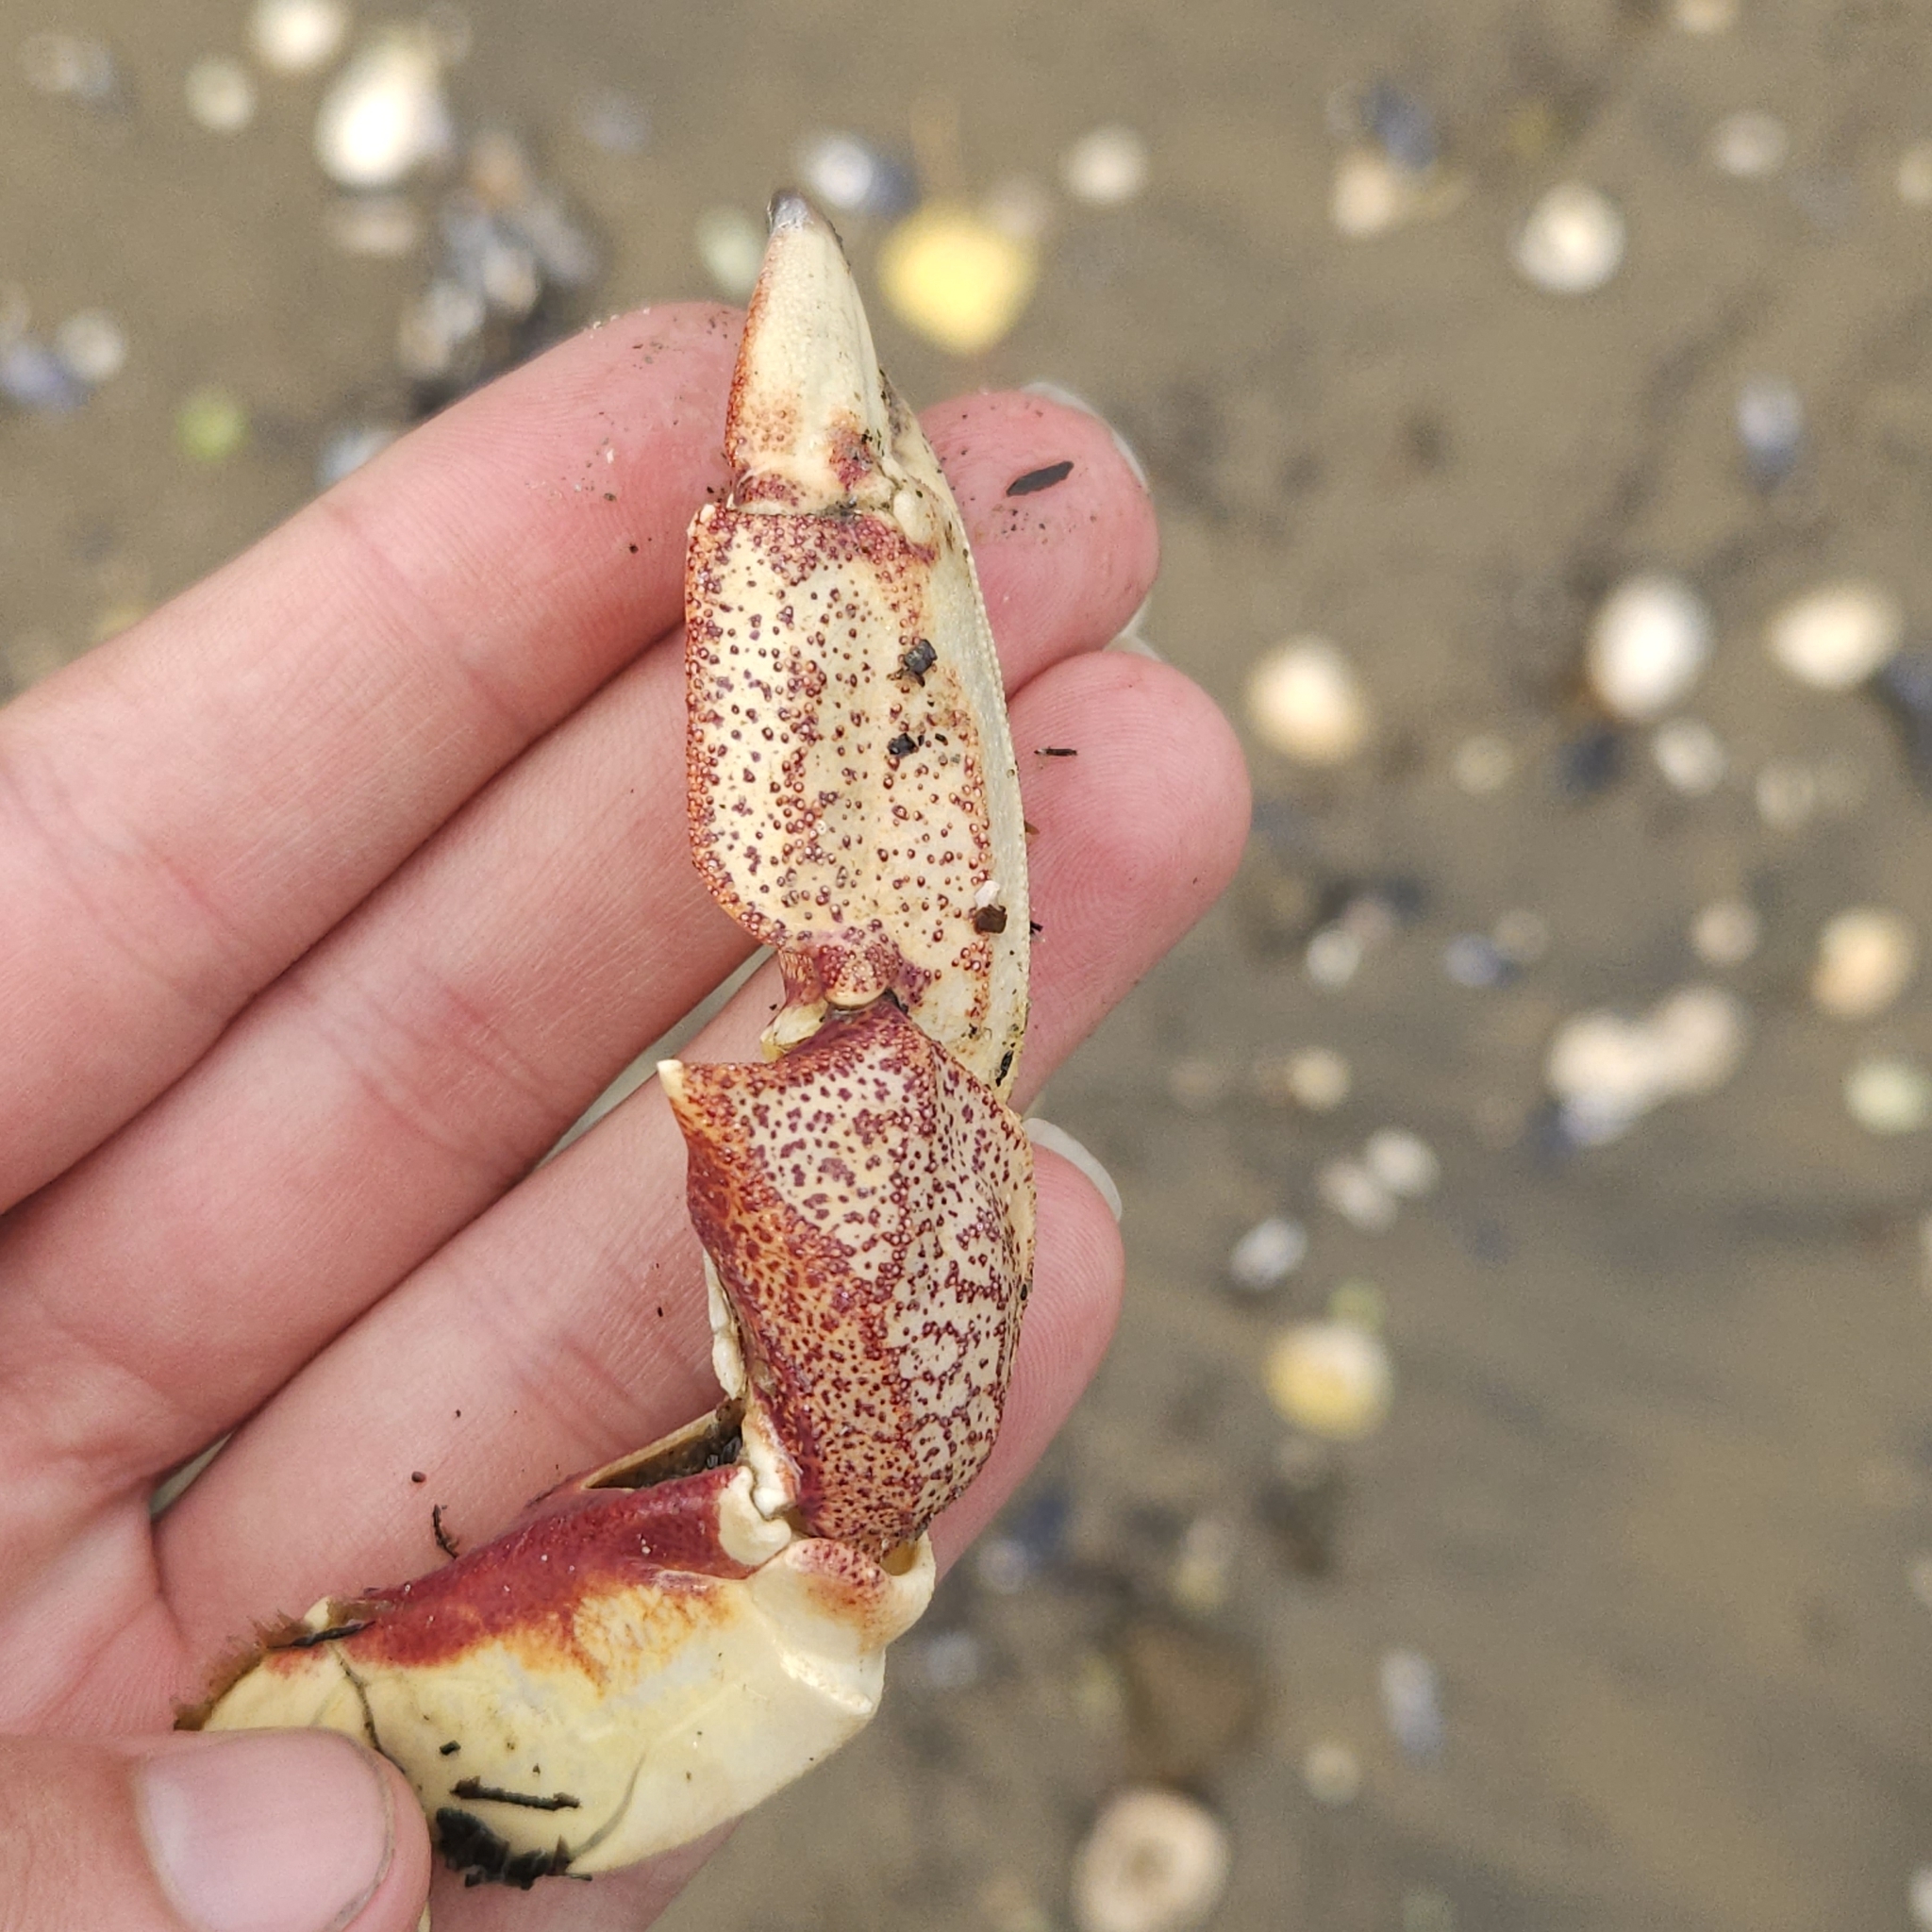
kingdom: Animalia
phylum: Arthropoda
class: Malacostraca
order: Decapoda
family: Cancridae
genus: Cancer
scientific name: Cancer irroratus
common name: Atlantic rock crab
